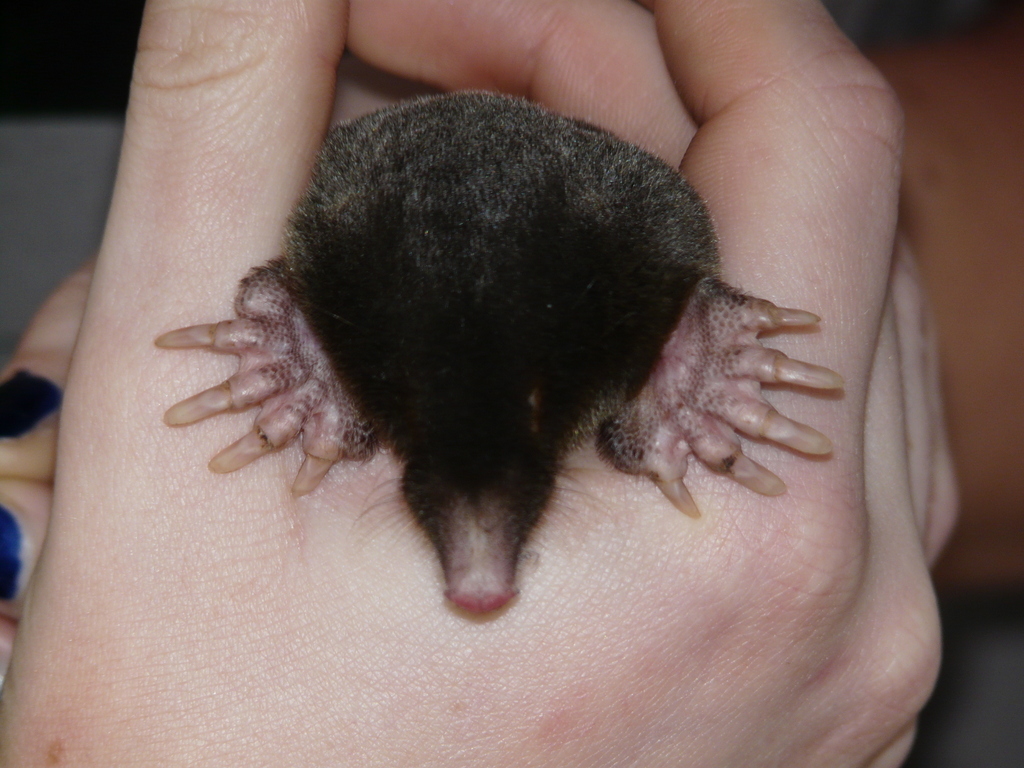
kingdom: Animalia
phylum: Chordata
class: Mammalia
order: Soricomorpha
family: Talpidae
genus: Talpa
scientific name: Talpa europaea
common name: European mole
